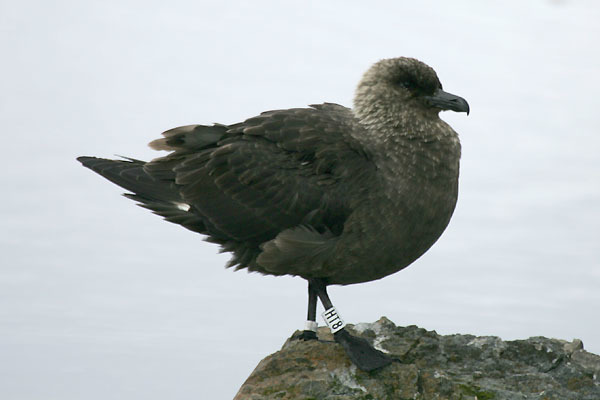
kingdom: Animalia
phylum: Chordata
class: Aves
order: Charadriiformes
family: Stercorariidae
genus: Stercorarius
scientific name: Stercorarius maccormicki
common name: South polar skua
